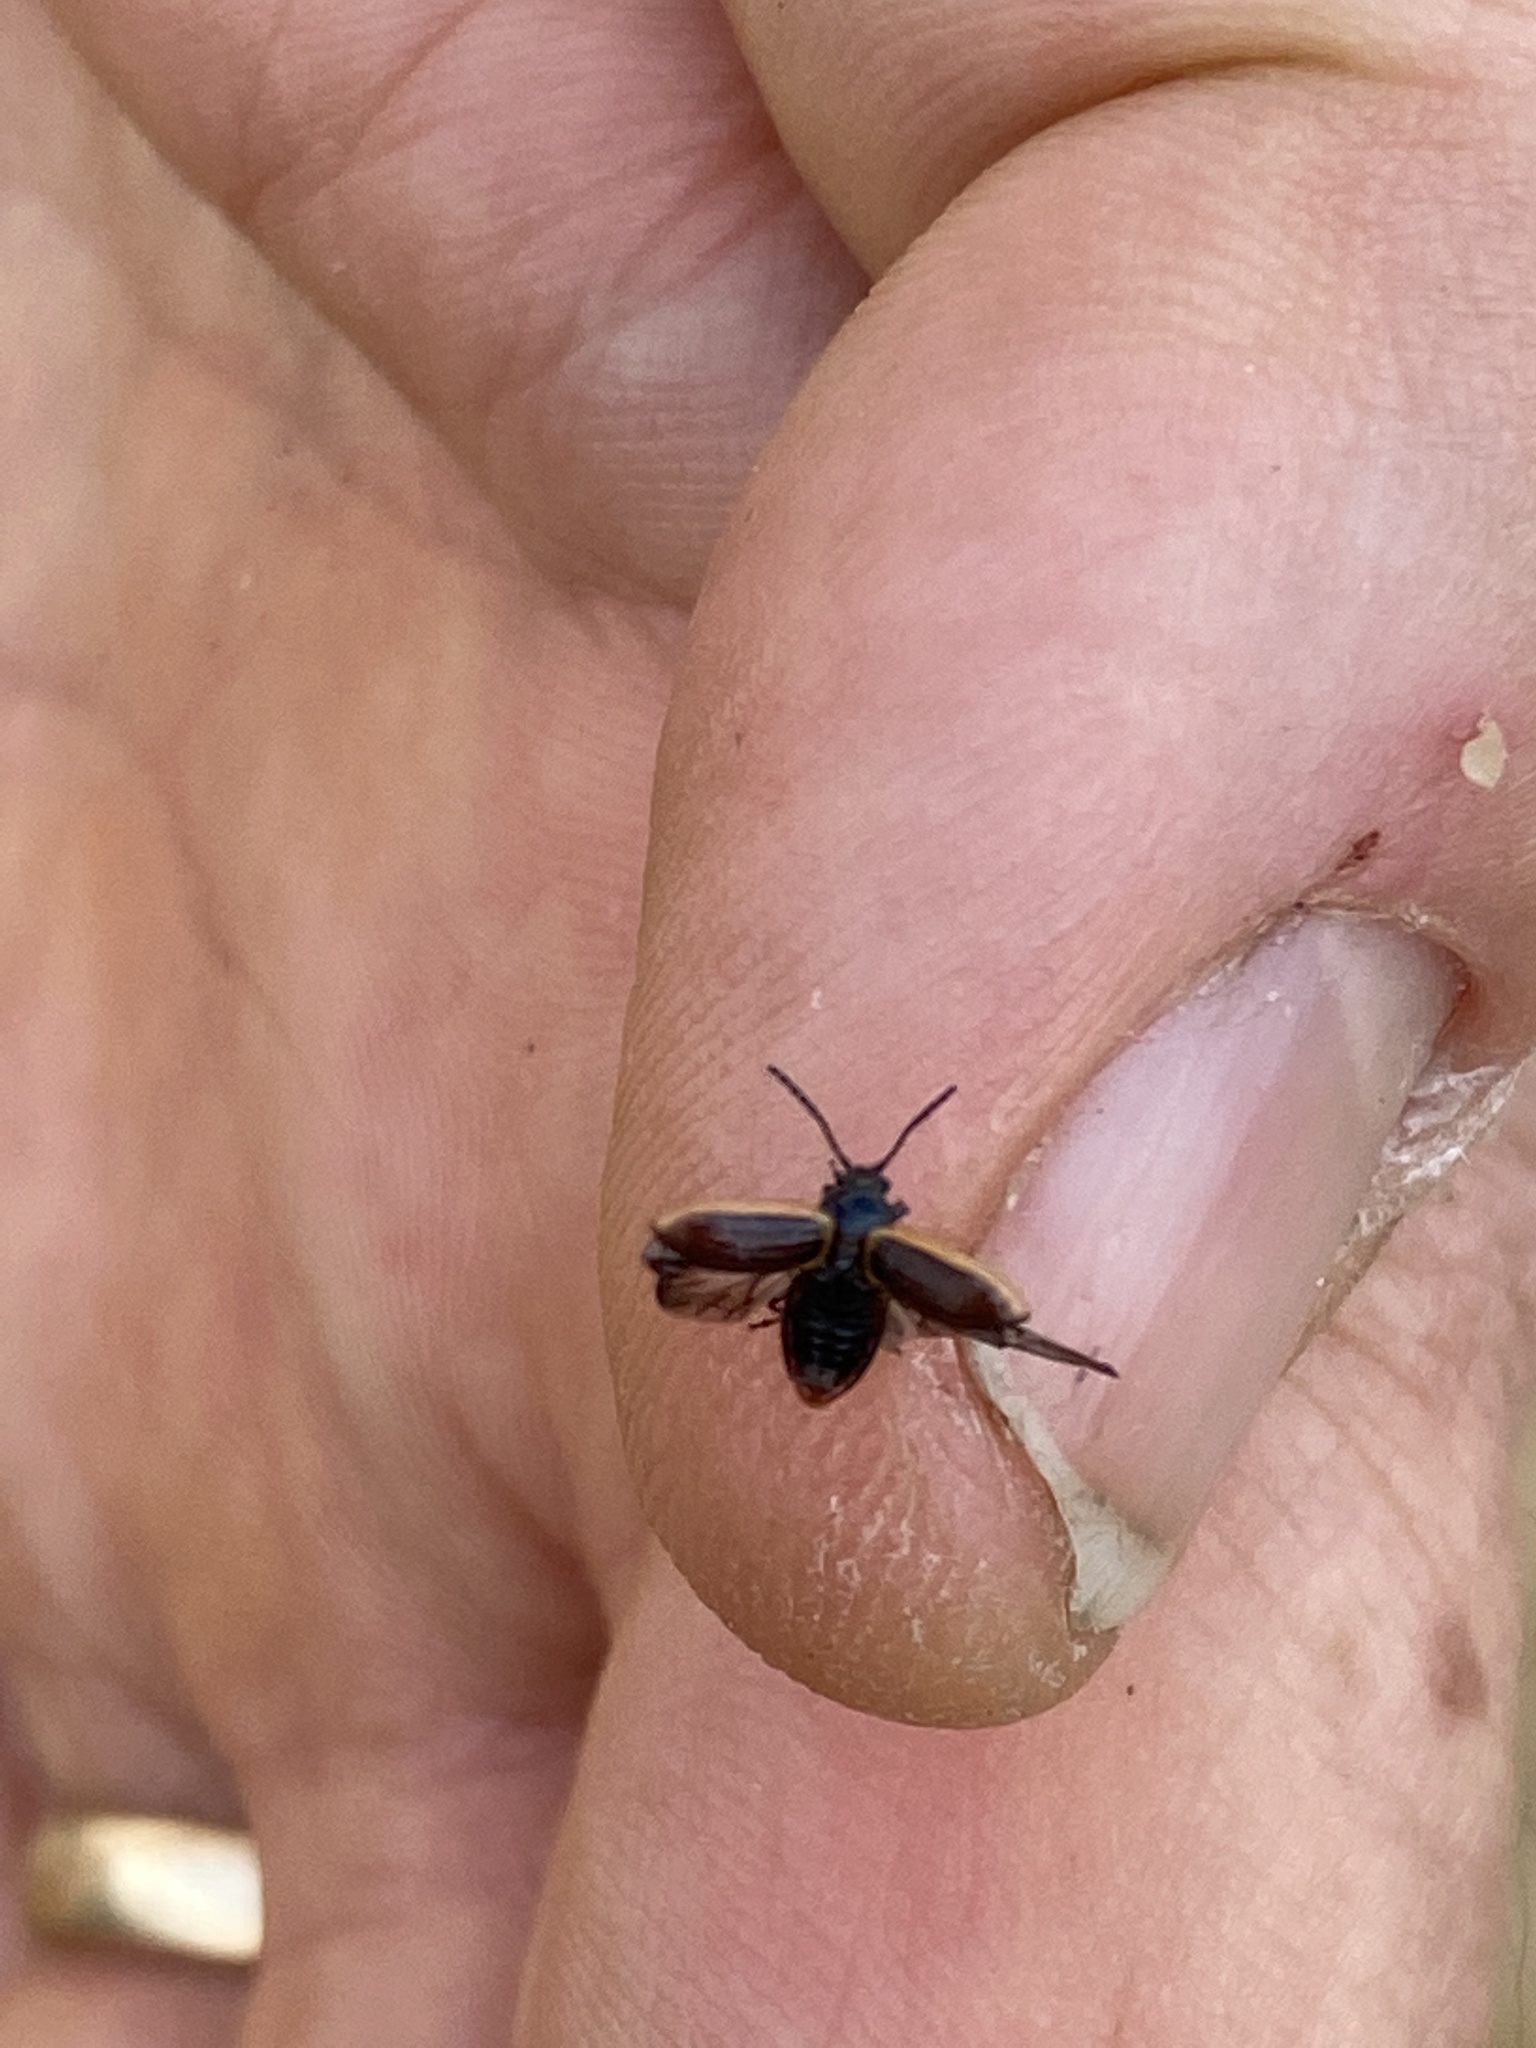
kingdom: Animalia
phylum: Arthropoda
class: Insecta
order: Coleoptera
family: Chrysomelidae
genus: Microtheca
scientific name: Microtheca ochroloma
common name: Leaf beetle
